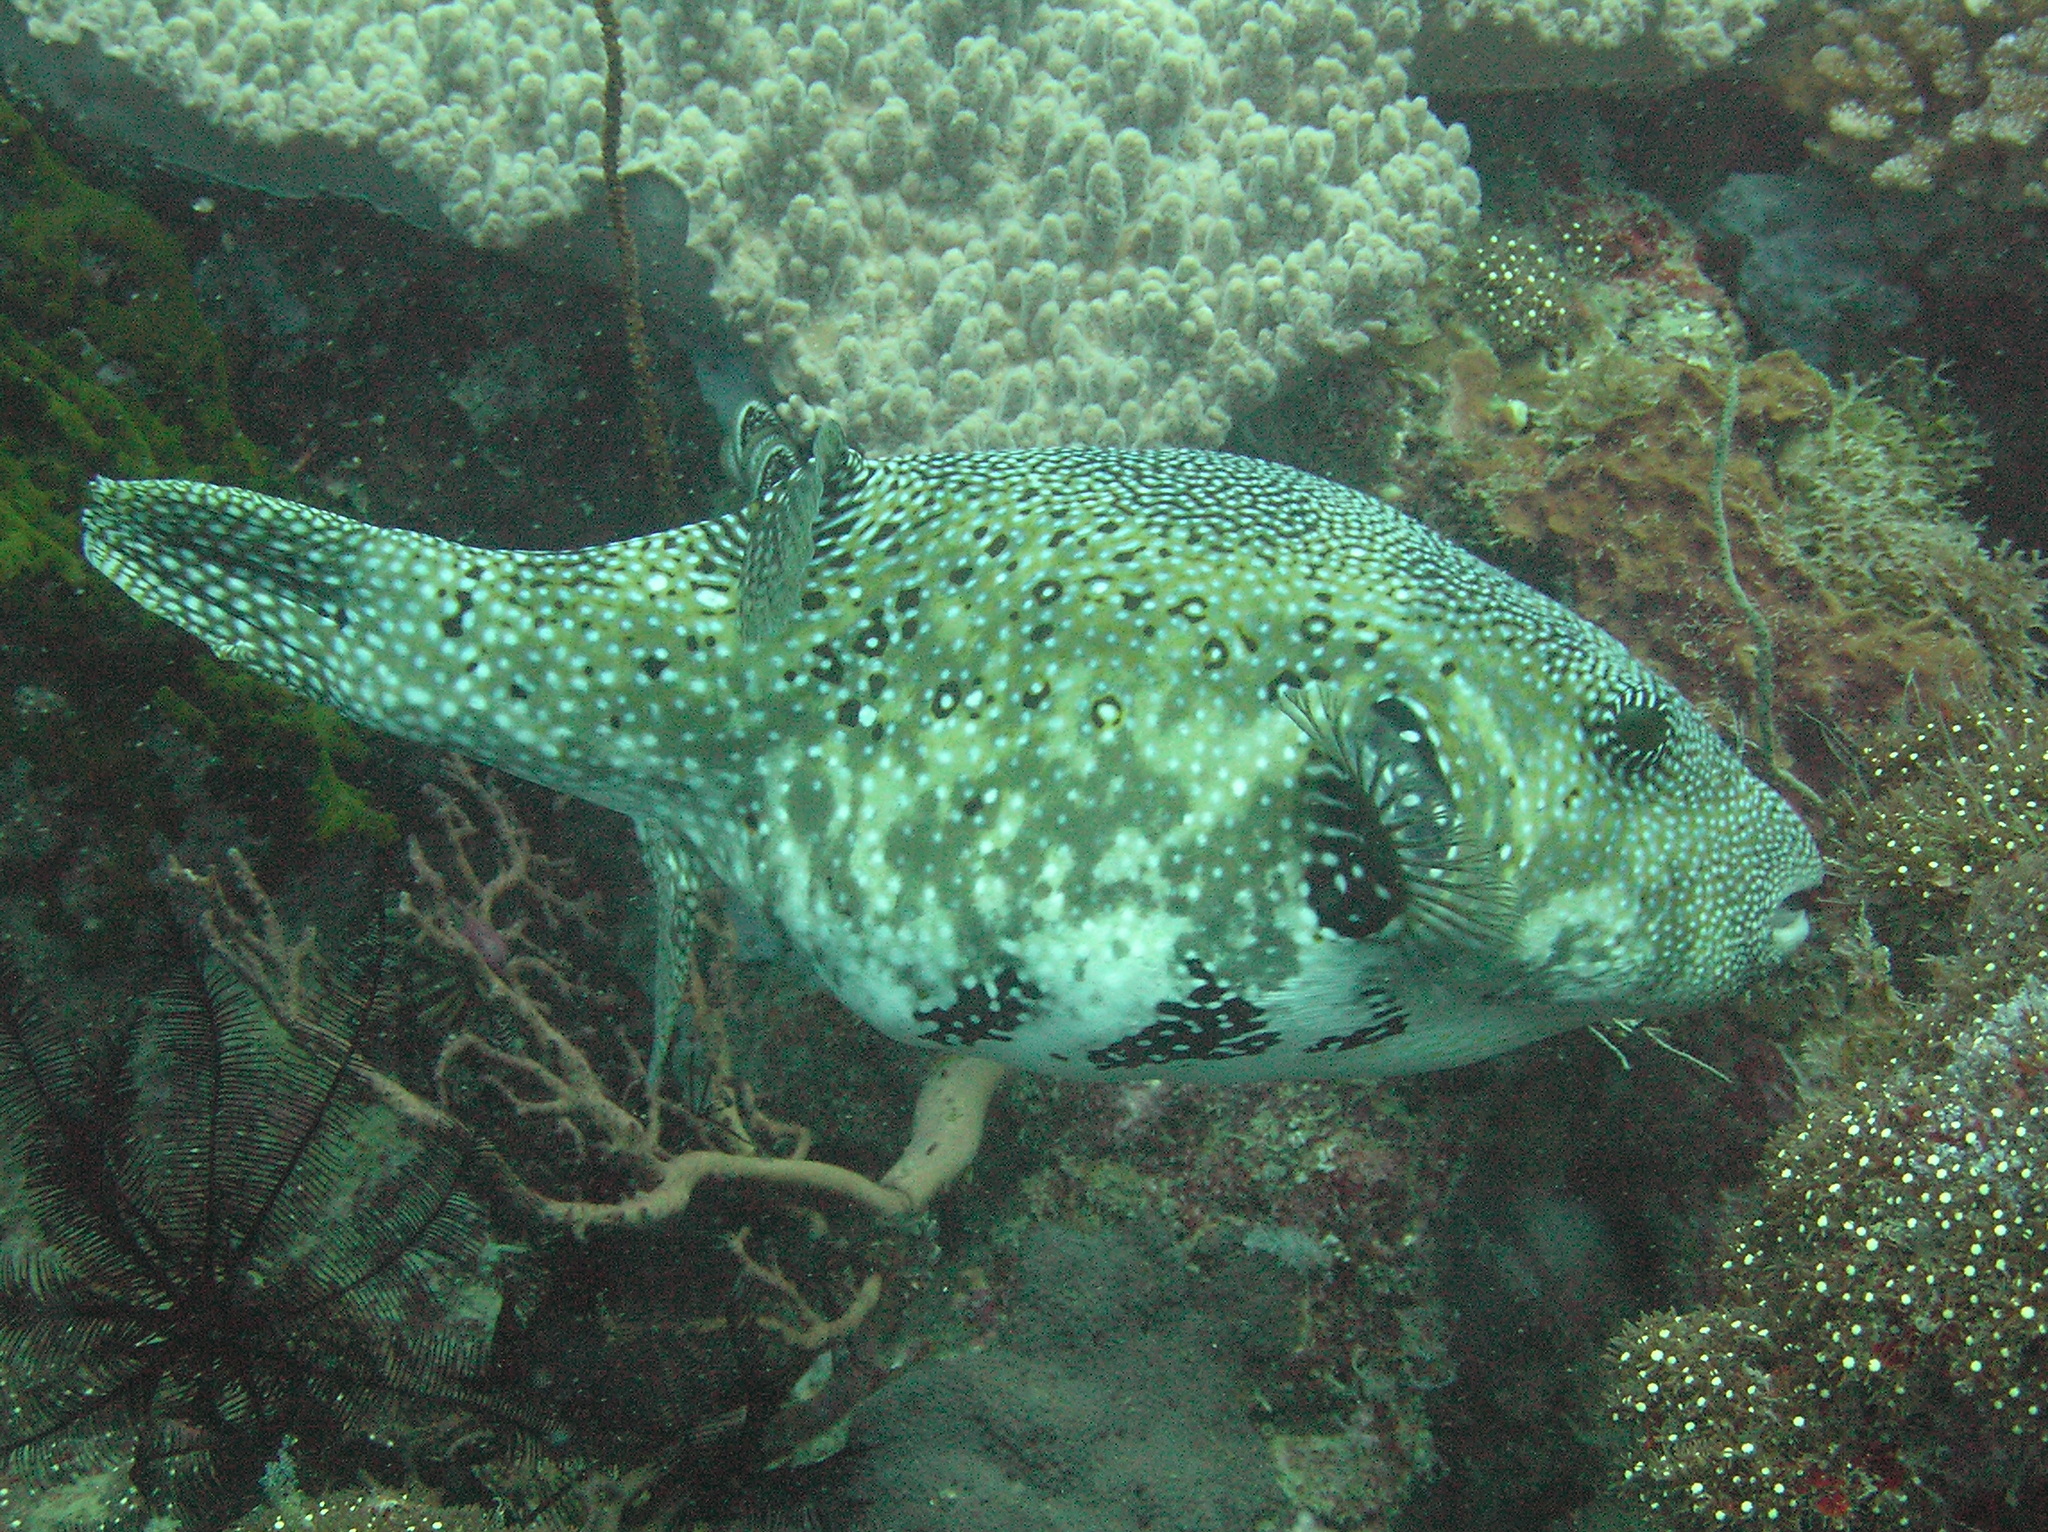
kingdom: Animalia
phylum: Chordata
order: Tetraodontiformes
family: Tetraodontidae
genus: Arothron
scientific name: Arothron mappa
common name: Map blaasop
